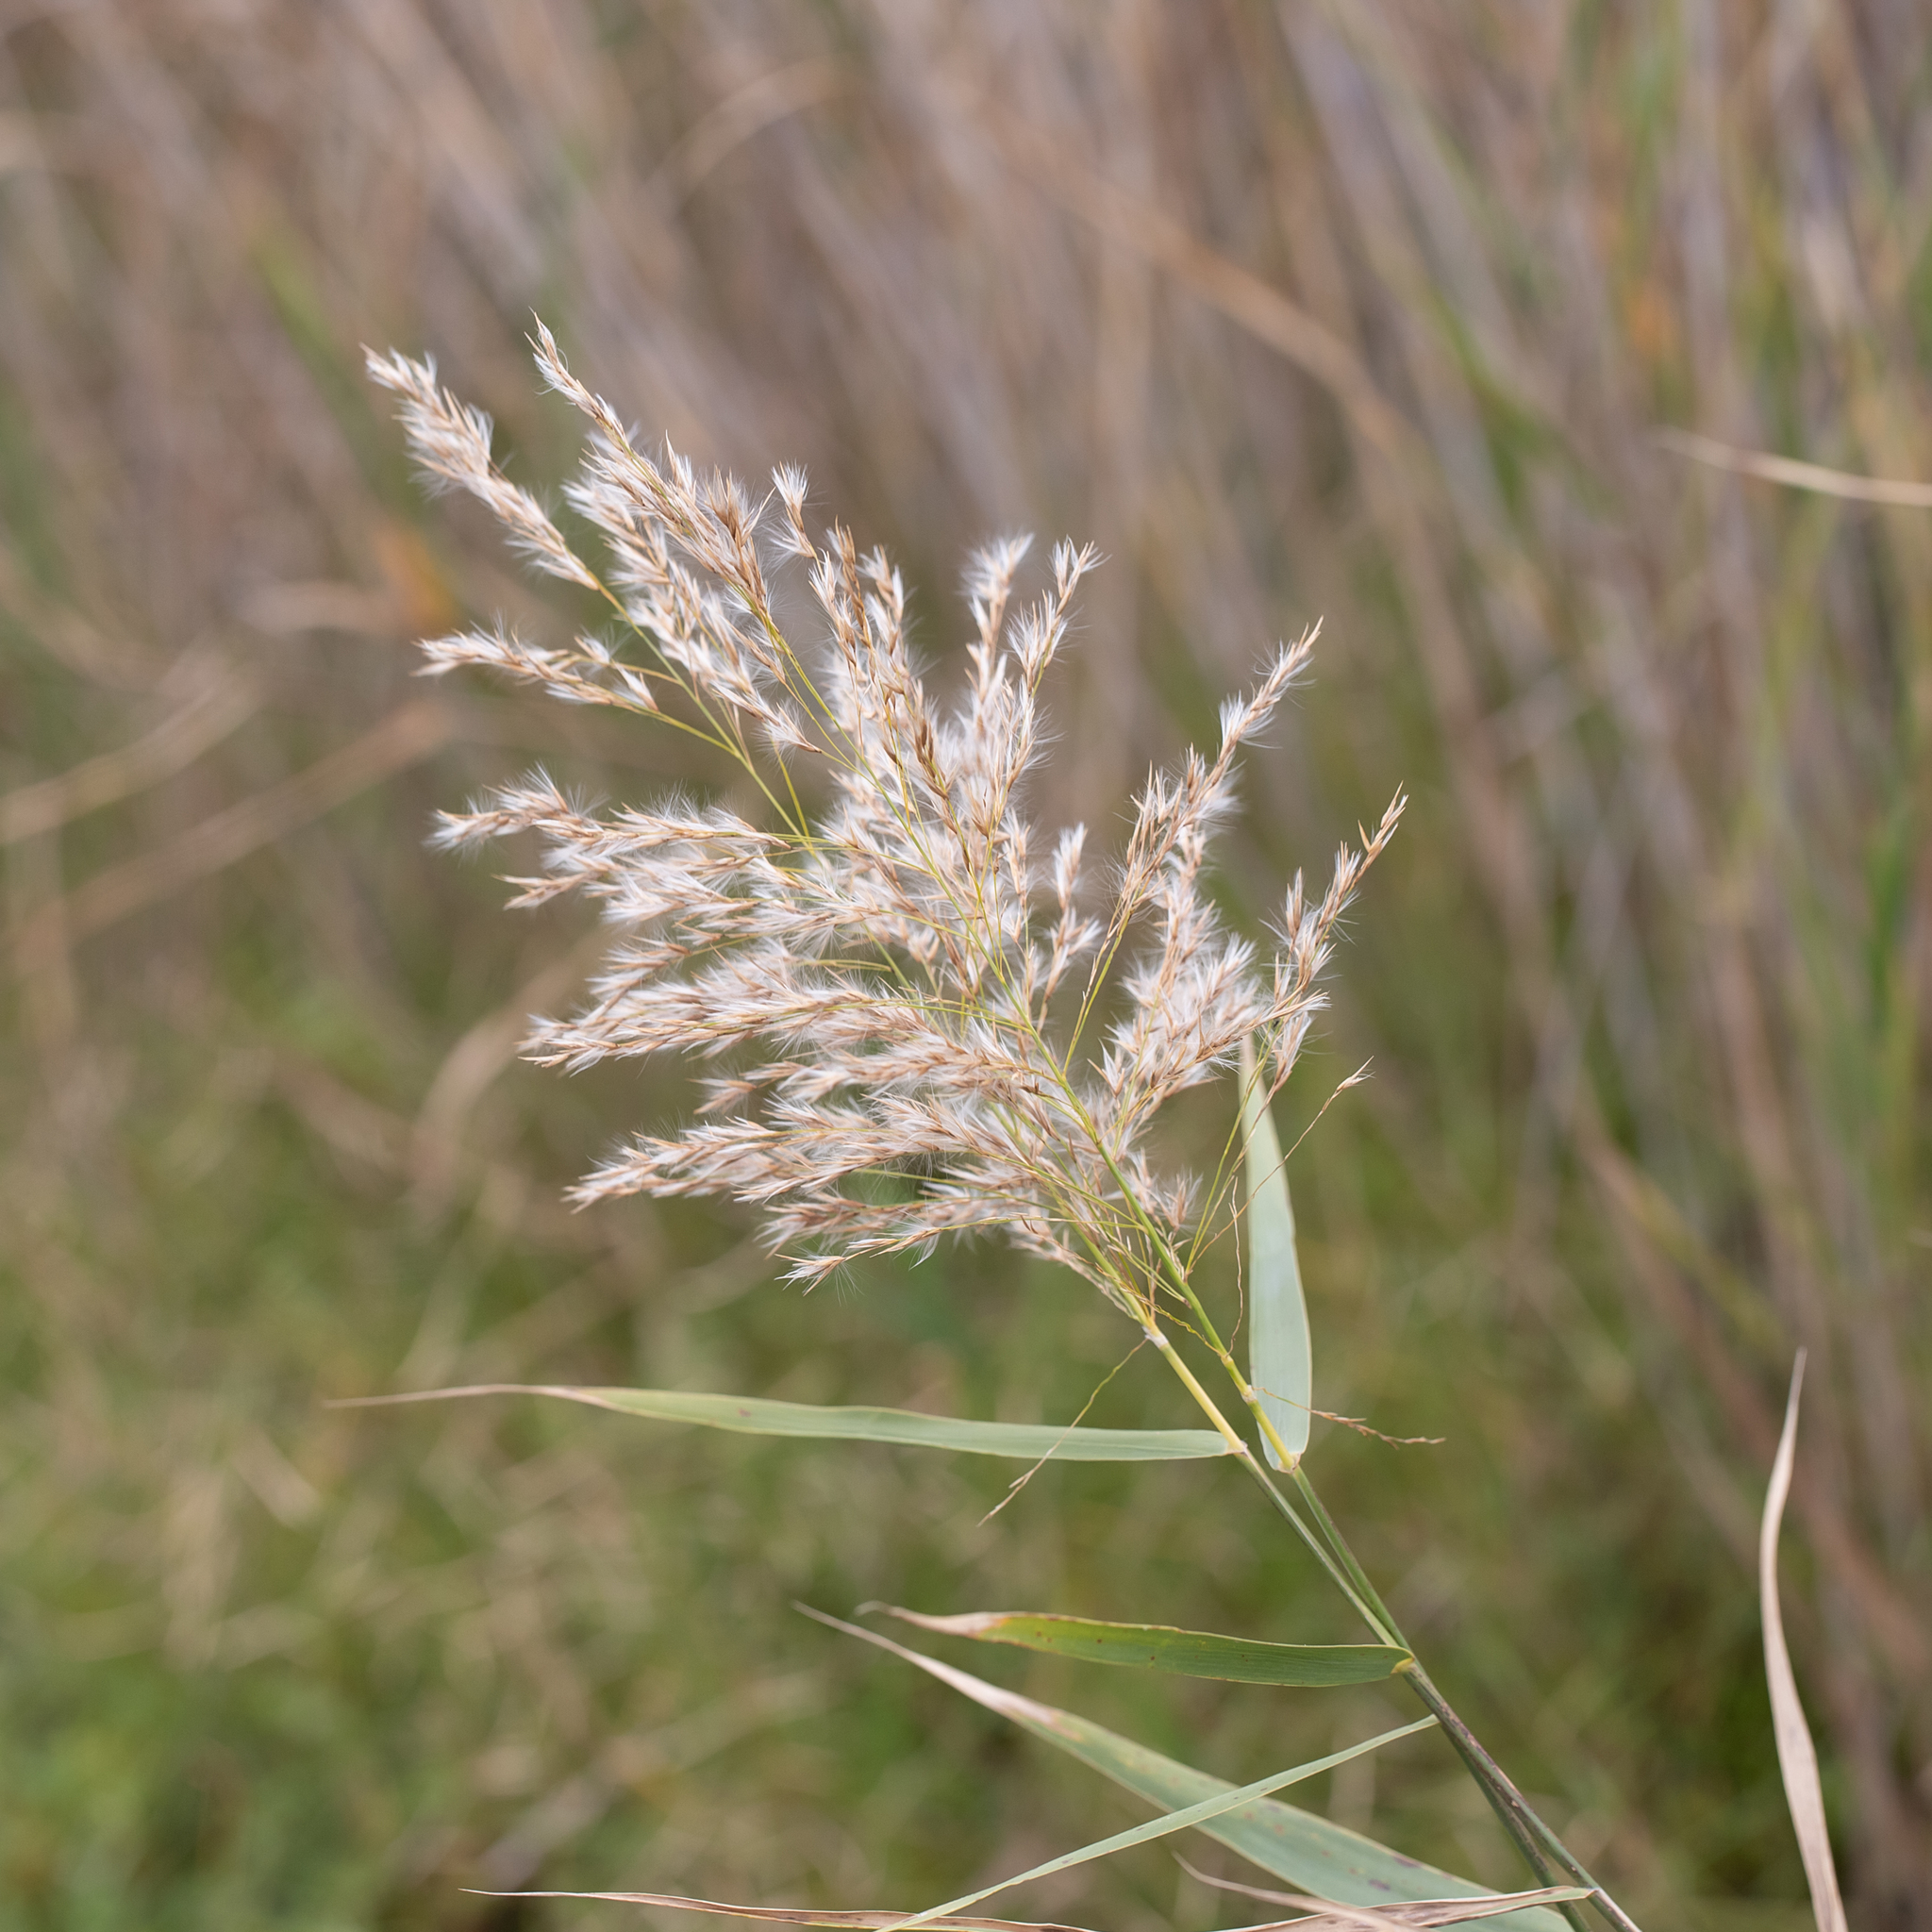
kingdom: Plantae
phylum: Tracheophyta
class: Liliopsida
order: Poales
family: Poaceae
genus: Phragmites
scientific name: Phragmites australis
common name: Common reed
